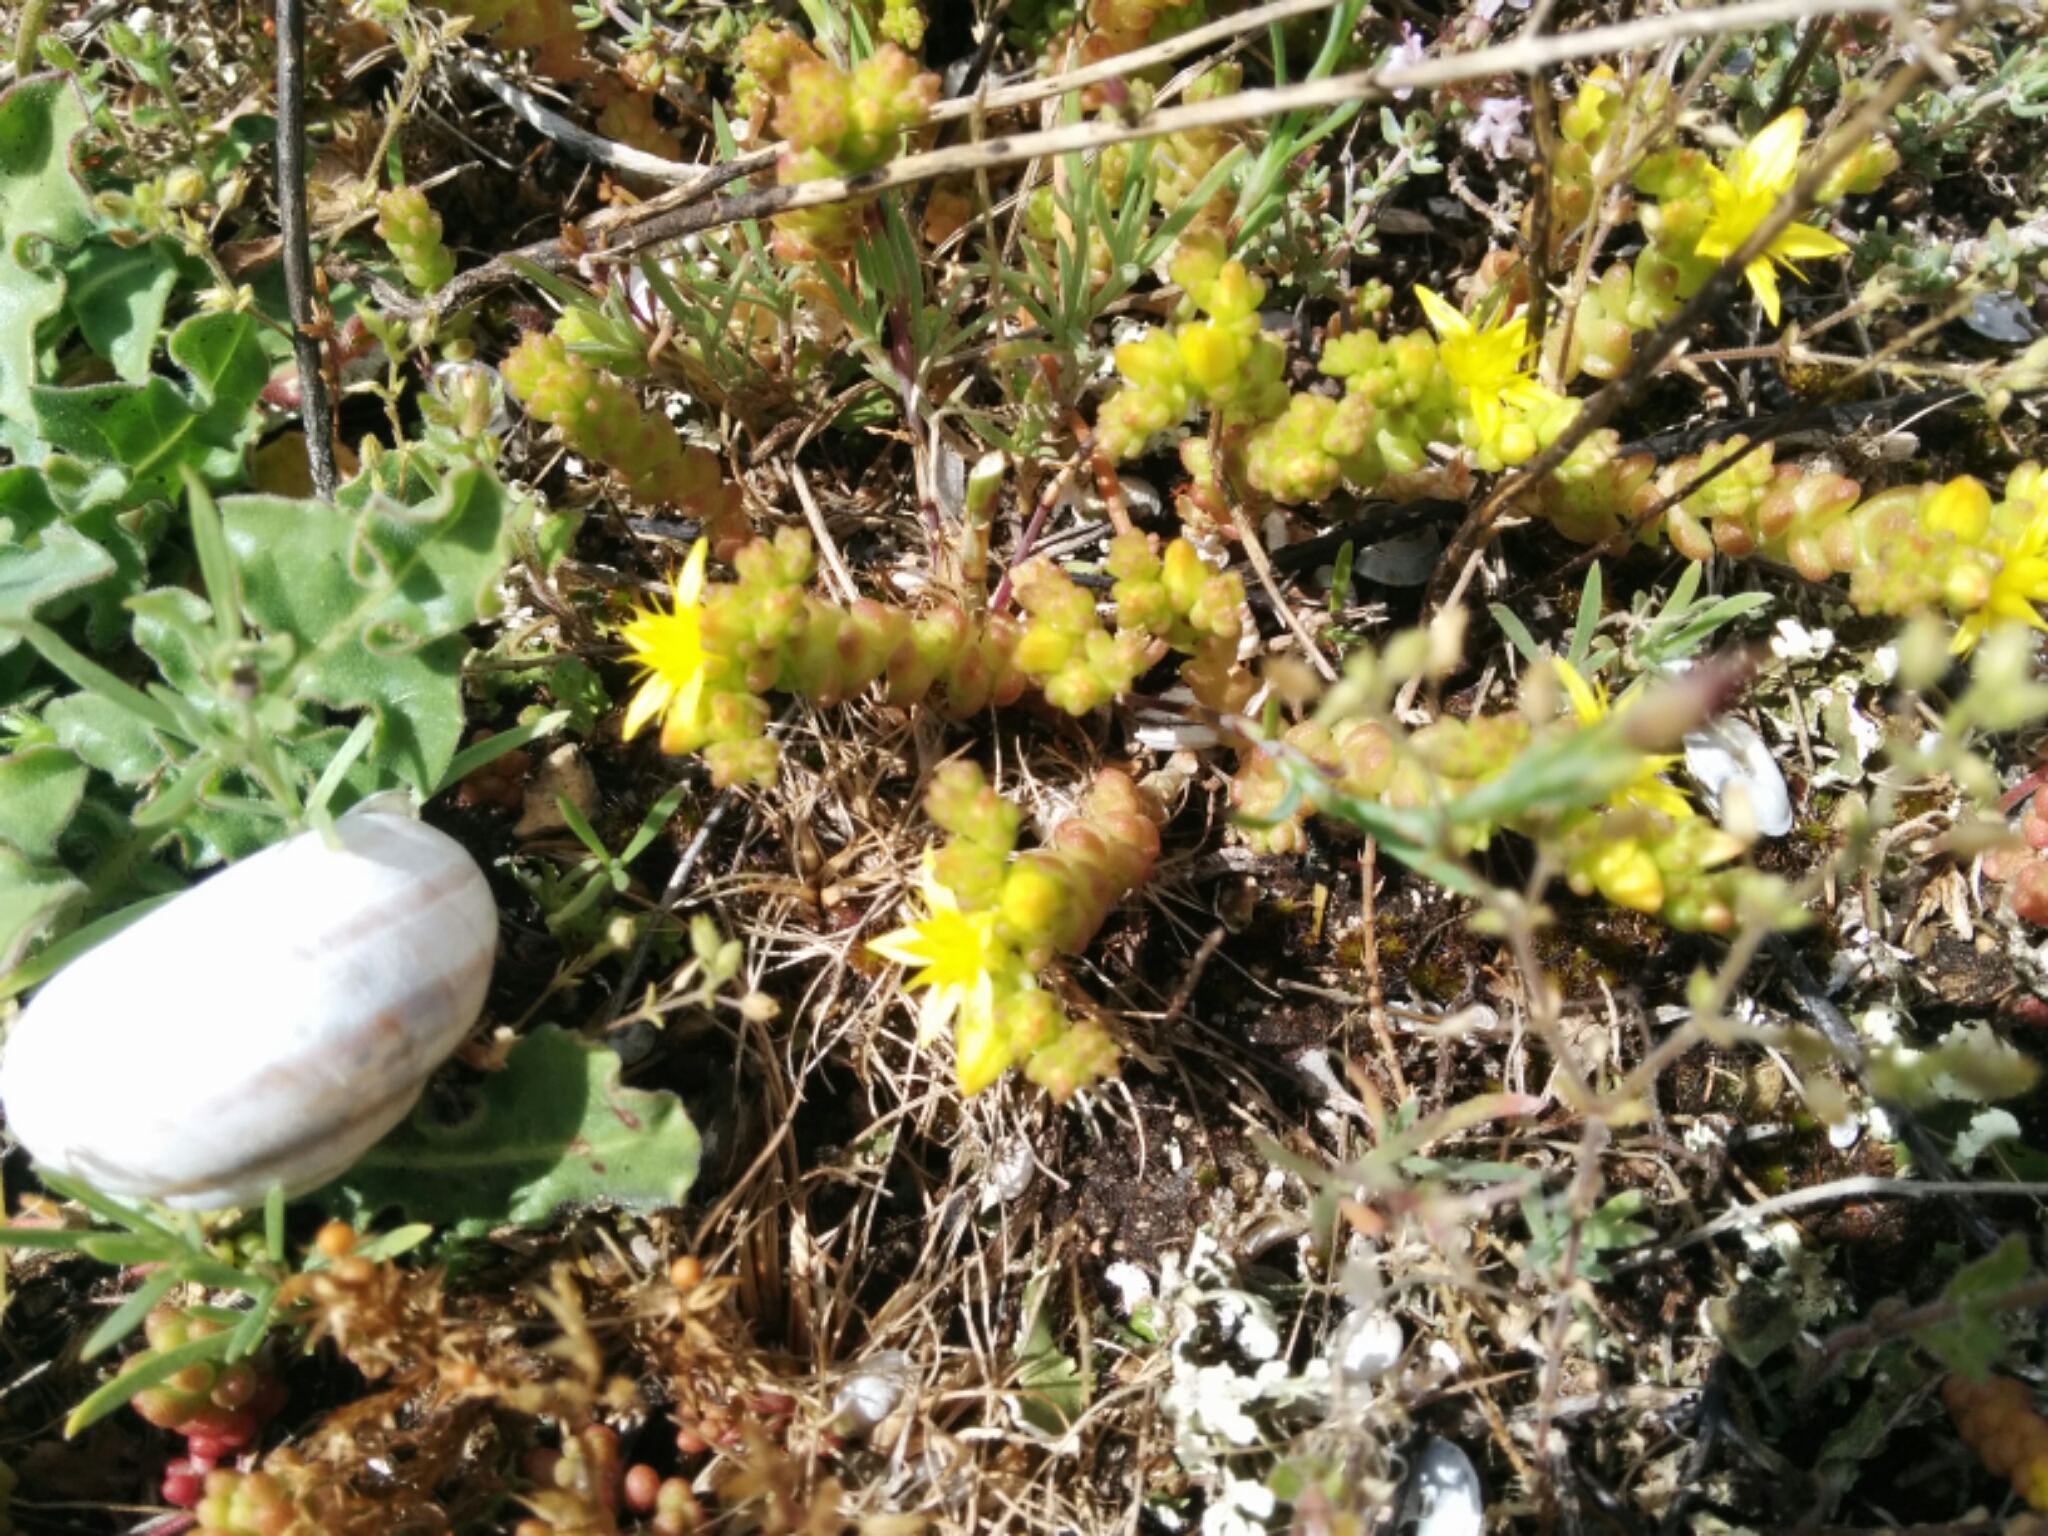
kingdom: Plantae
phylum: Tracheophyta
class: Magnoliopsida
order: Saxifragales
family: Crassulaceae
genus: Sedum
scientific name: Sedum acre
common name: Biting stonecrop
